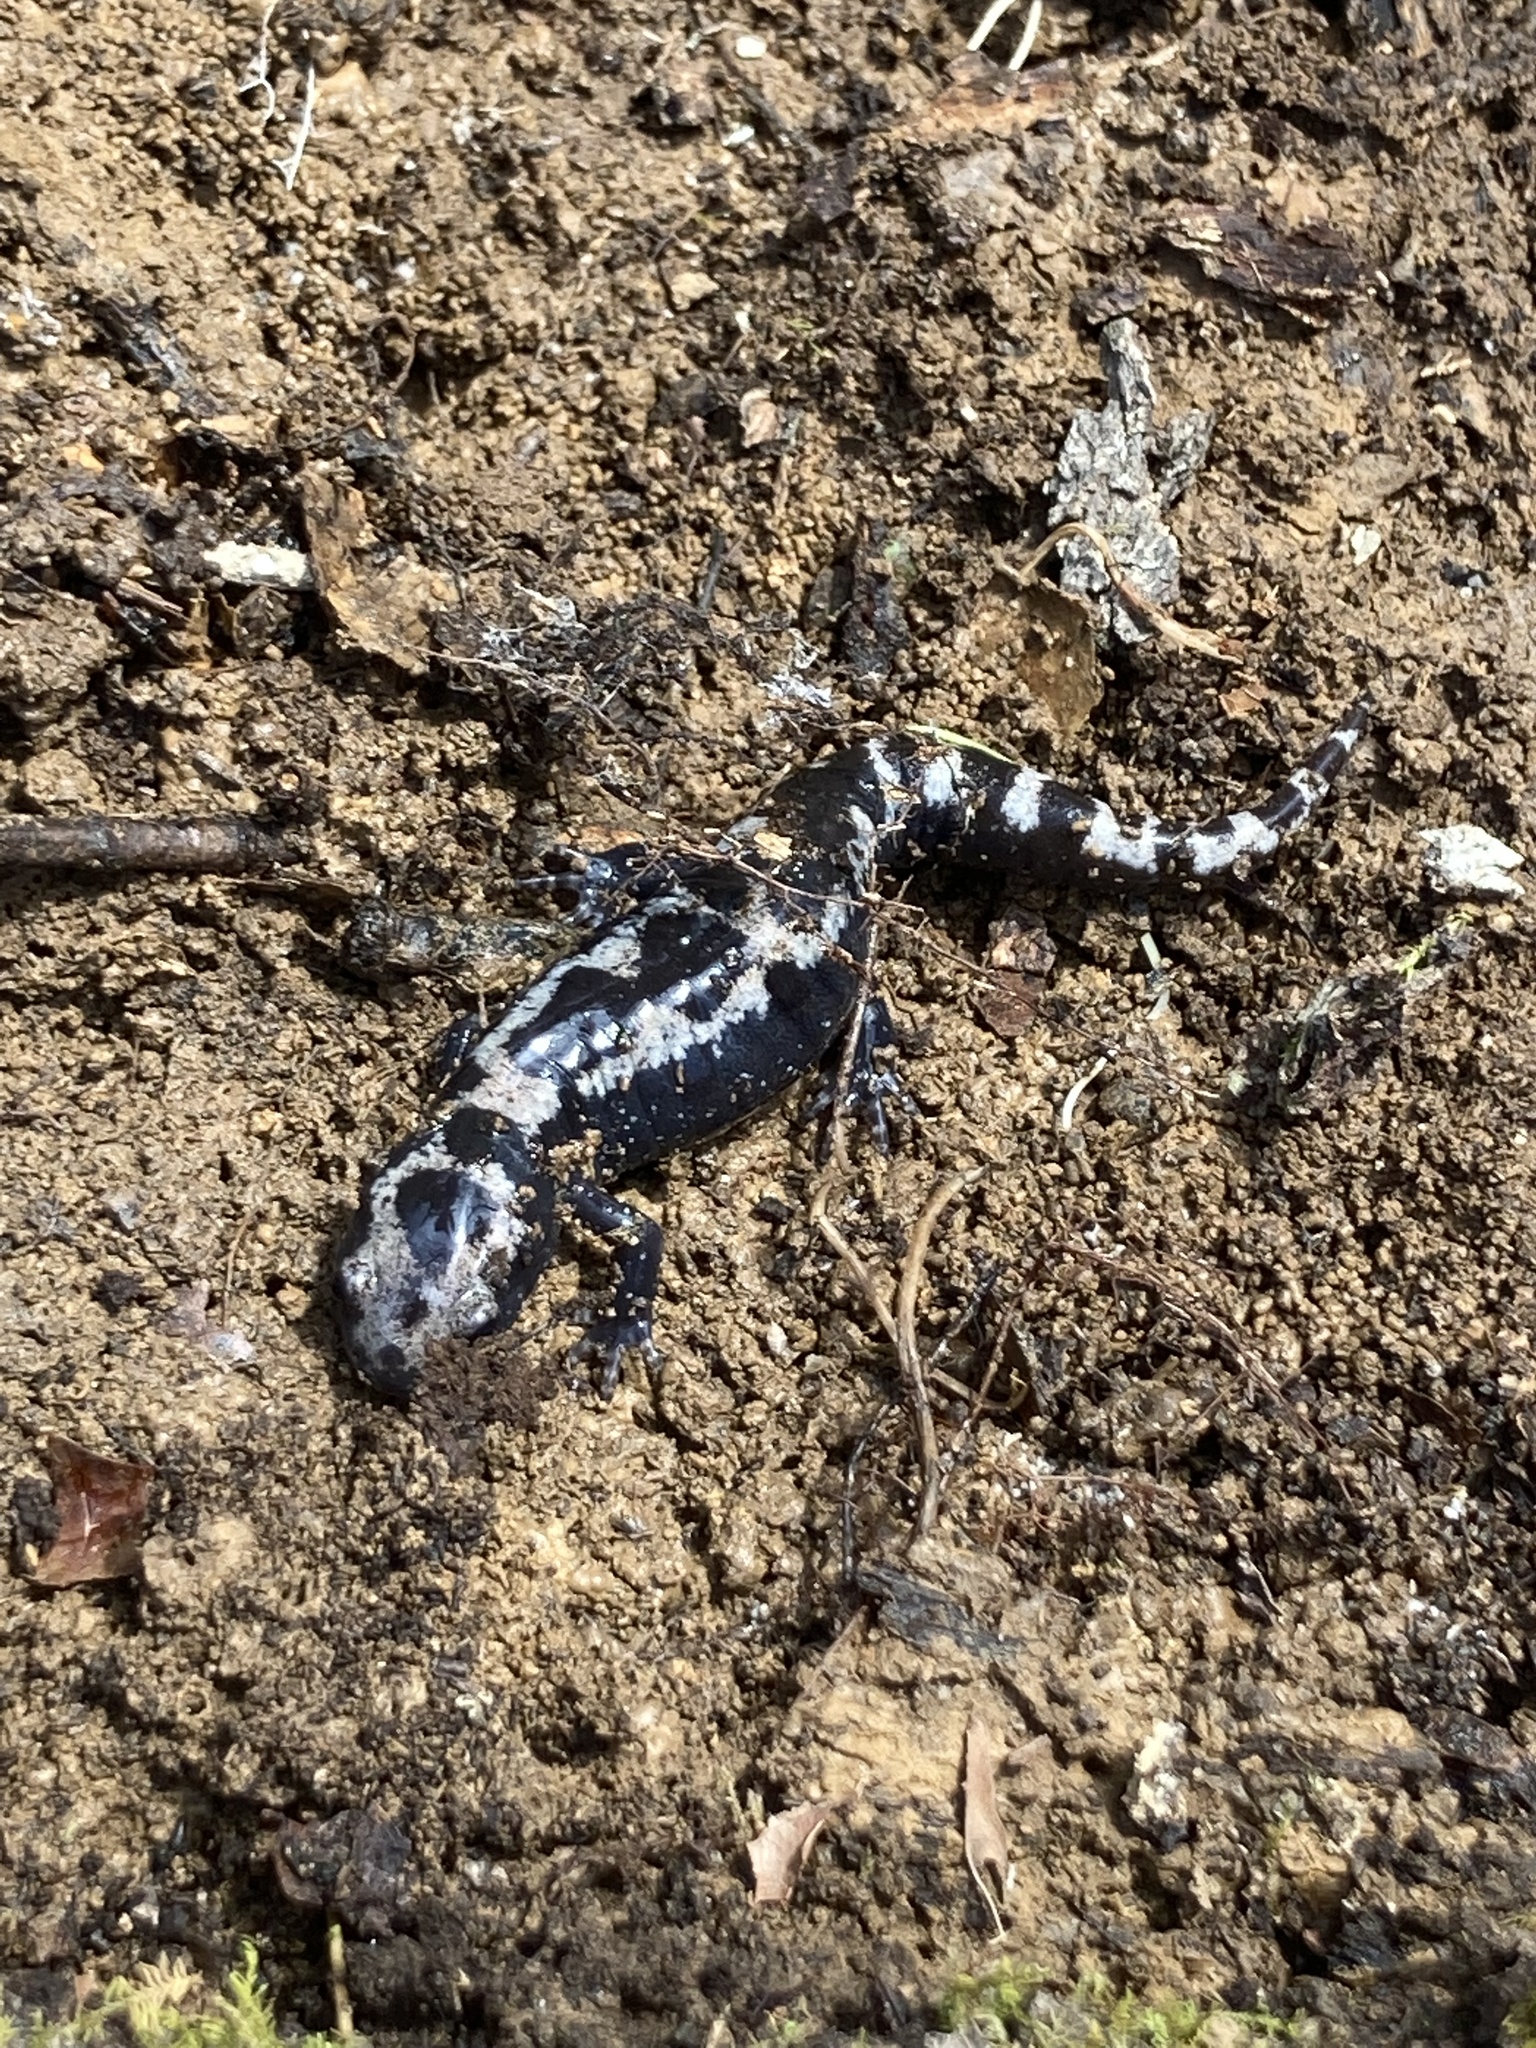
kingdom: Animalia
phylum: Chordata
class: Amphibia
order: Caudata
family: Ambystomatidae
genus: Ambystoma
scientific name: Ambystoma opacum
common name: Marbled salamander
